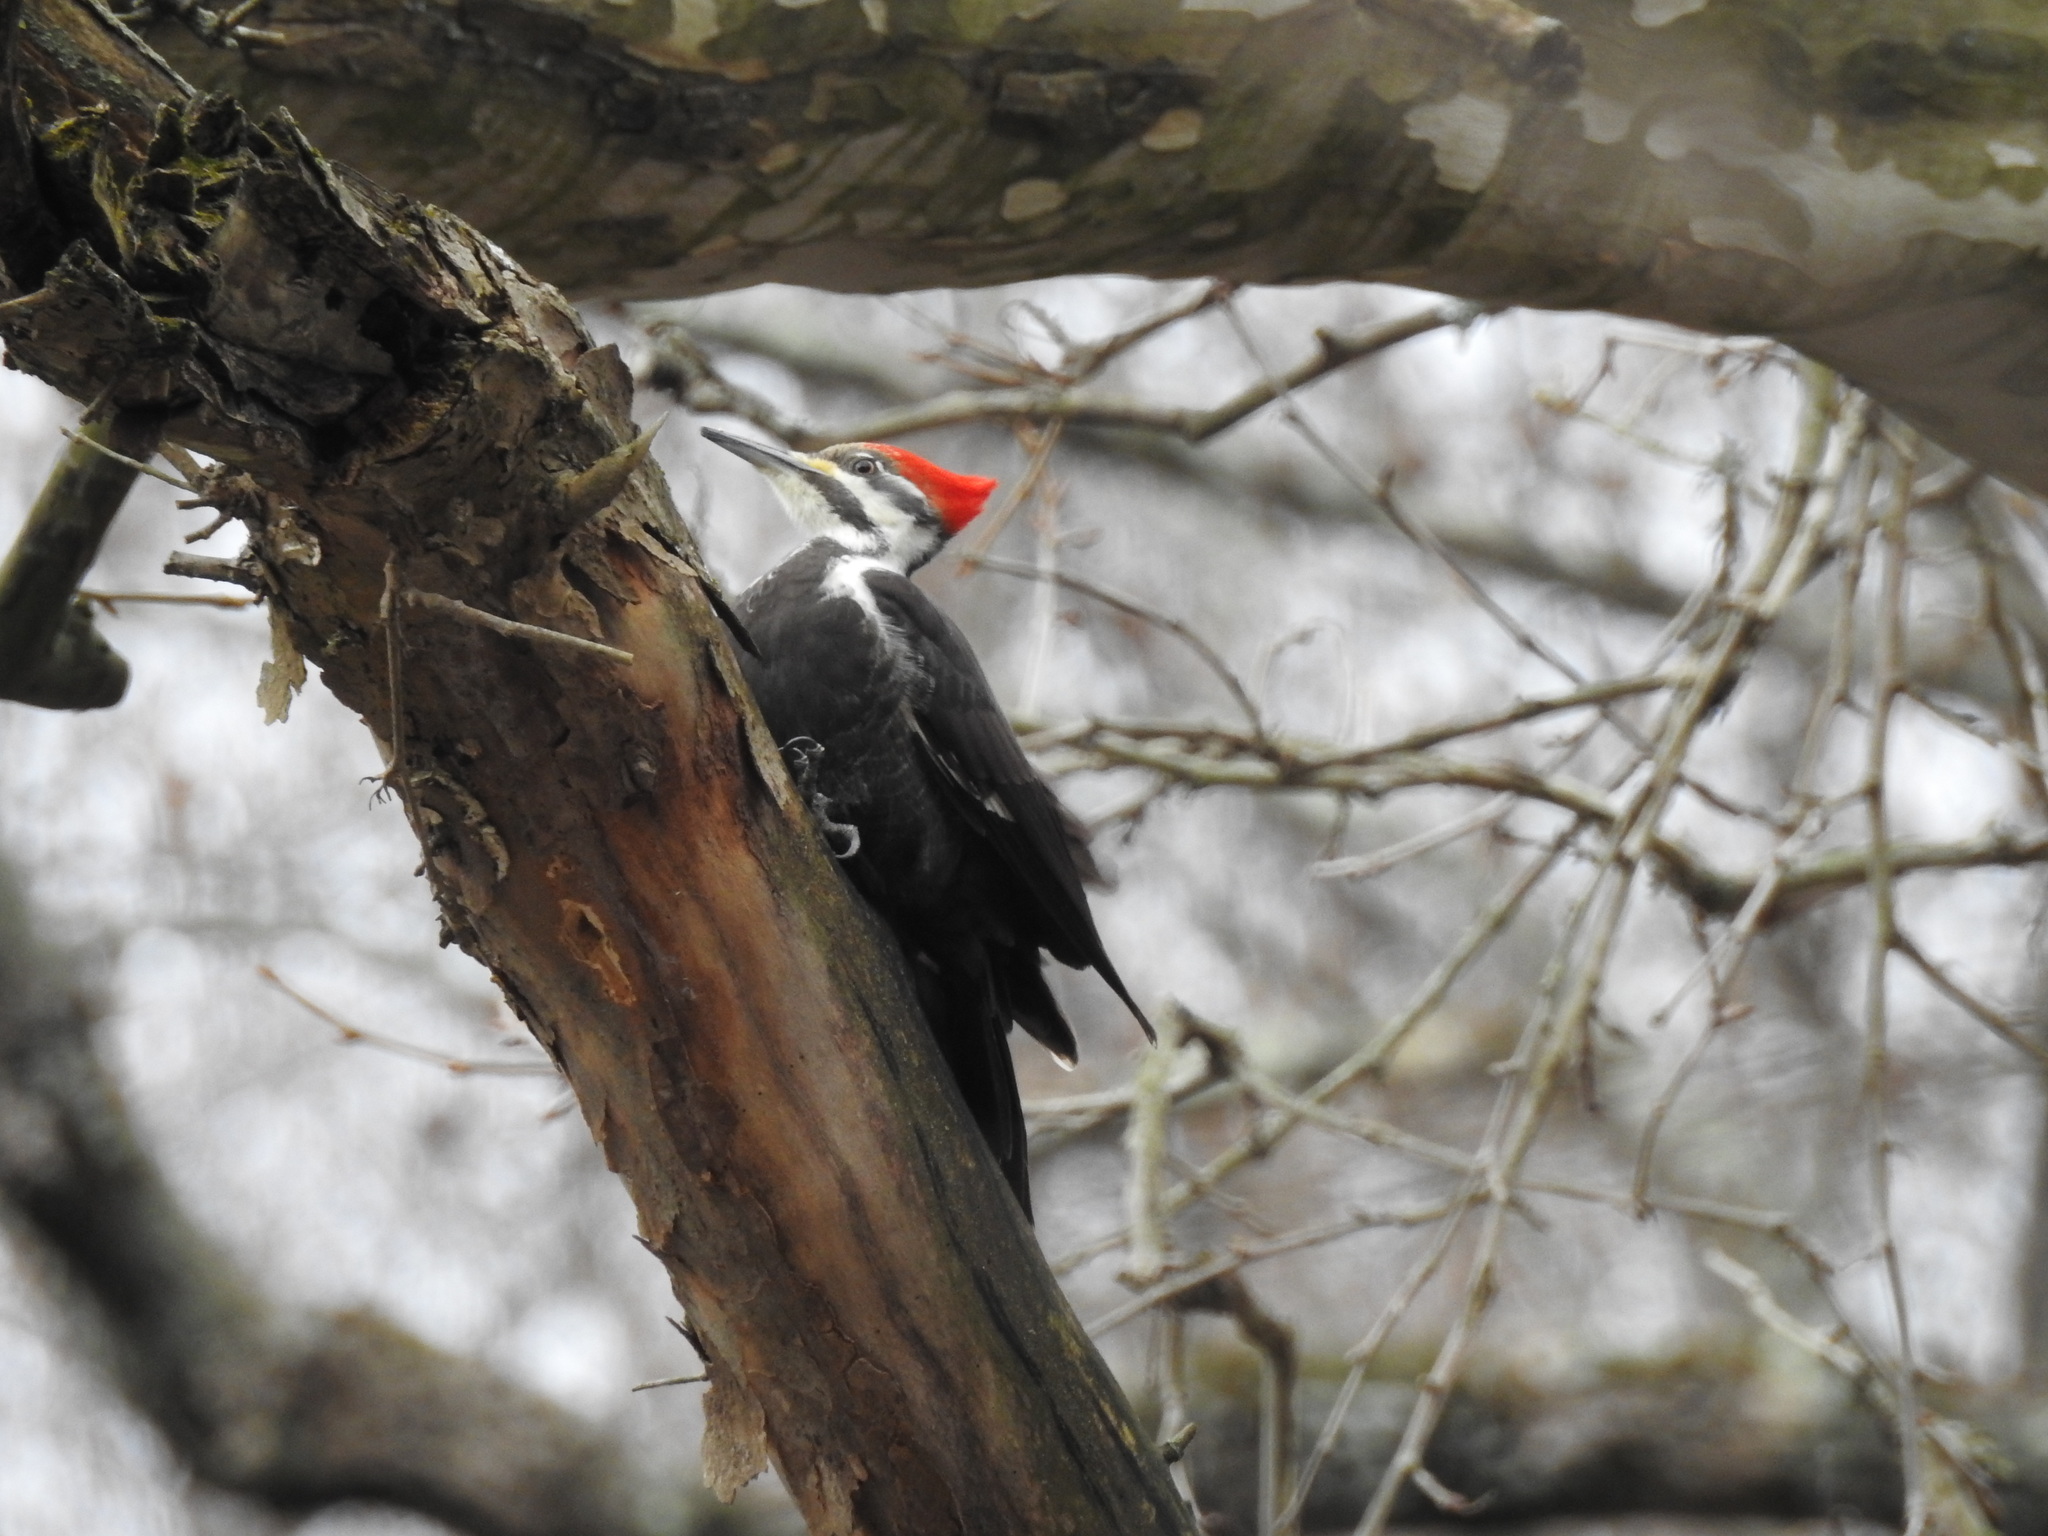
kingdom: Animalia
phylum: Chordata
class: Aves
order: Piciformes
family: Picidae
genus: Dryocopus
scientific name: Dryocopus pileatus
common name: Pileated woodpecker
